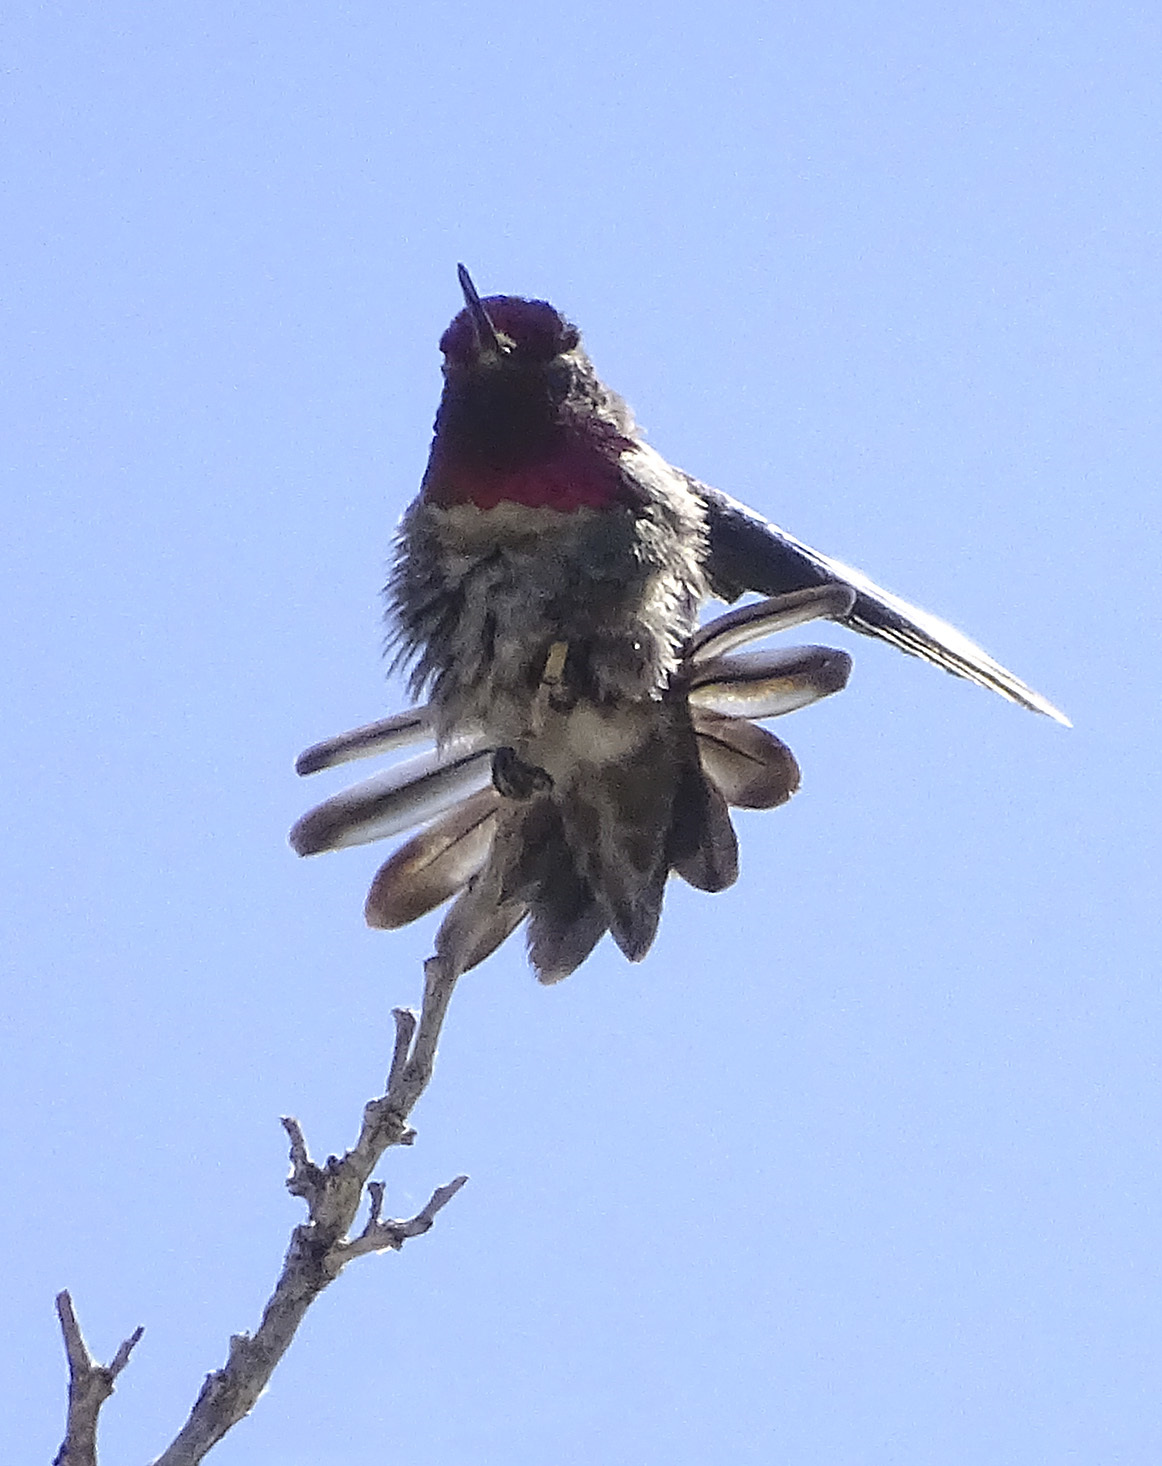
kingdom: Animalia
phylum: Chordata
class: Aves
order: Apodiformes
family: Trochilidae
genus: Calypte
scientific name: Calypte anna
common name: Anna's hummingbird
